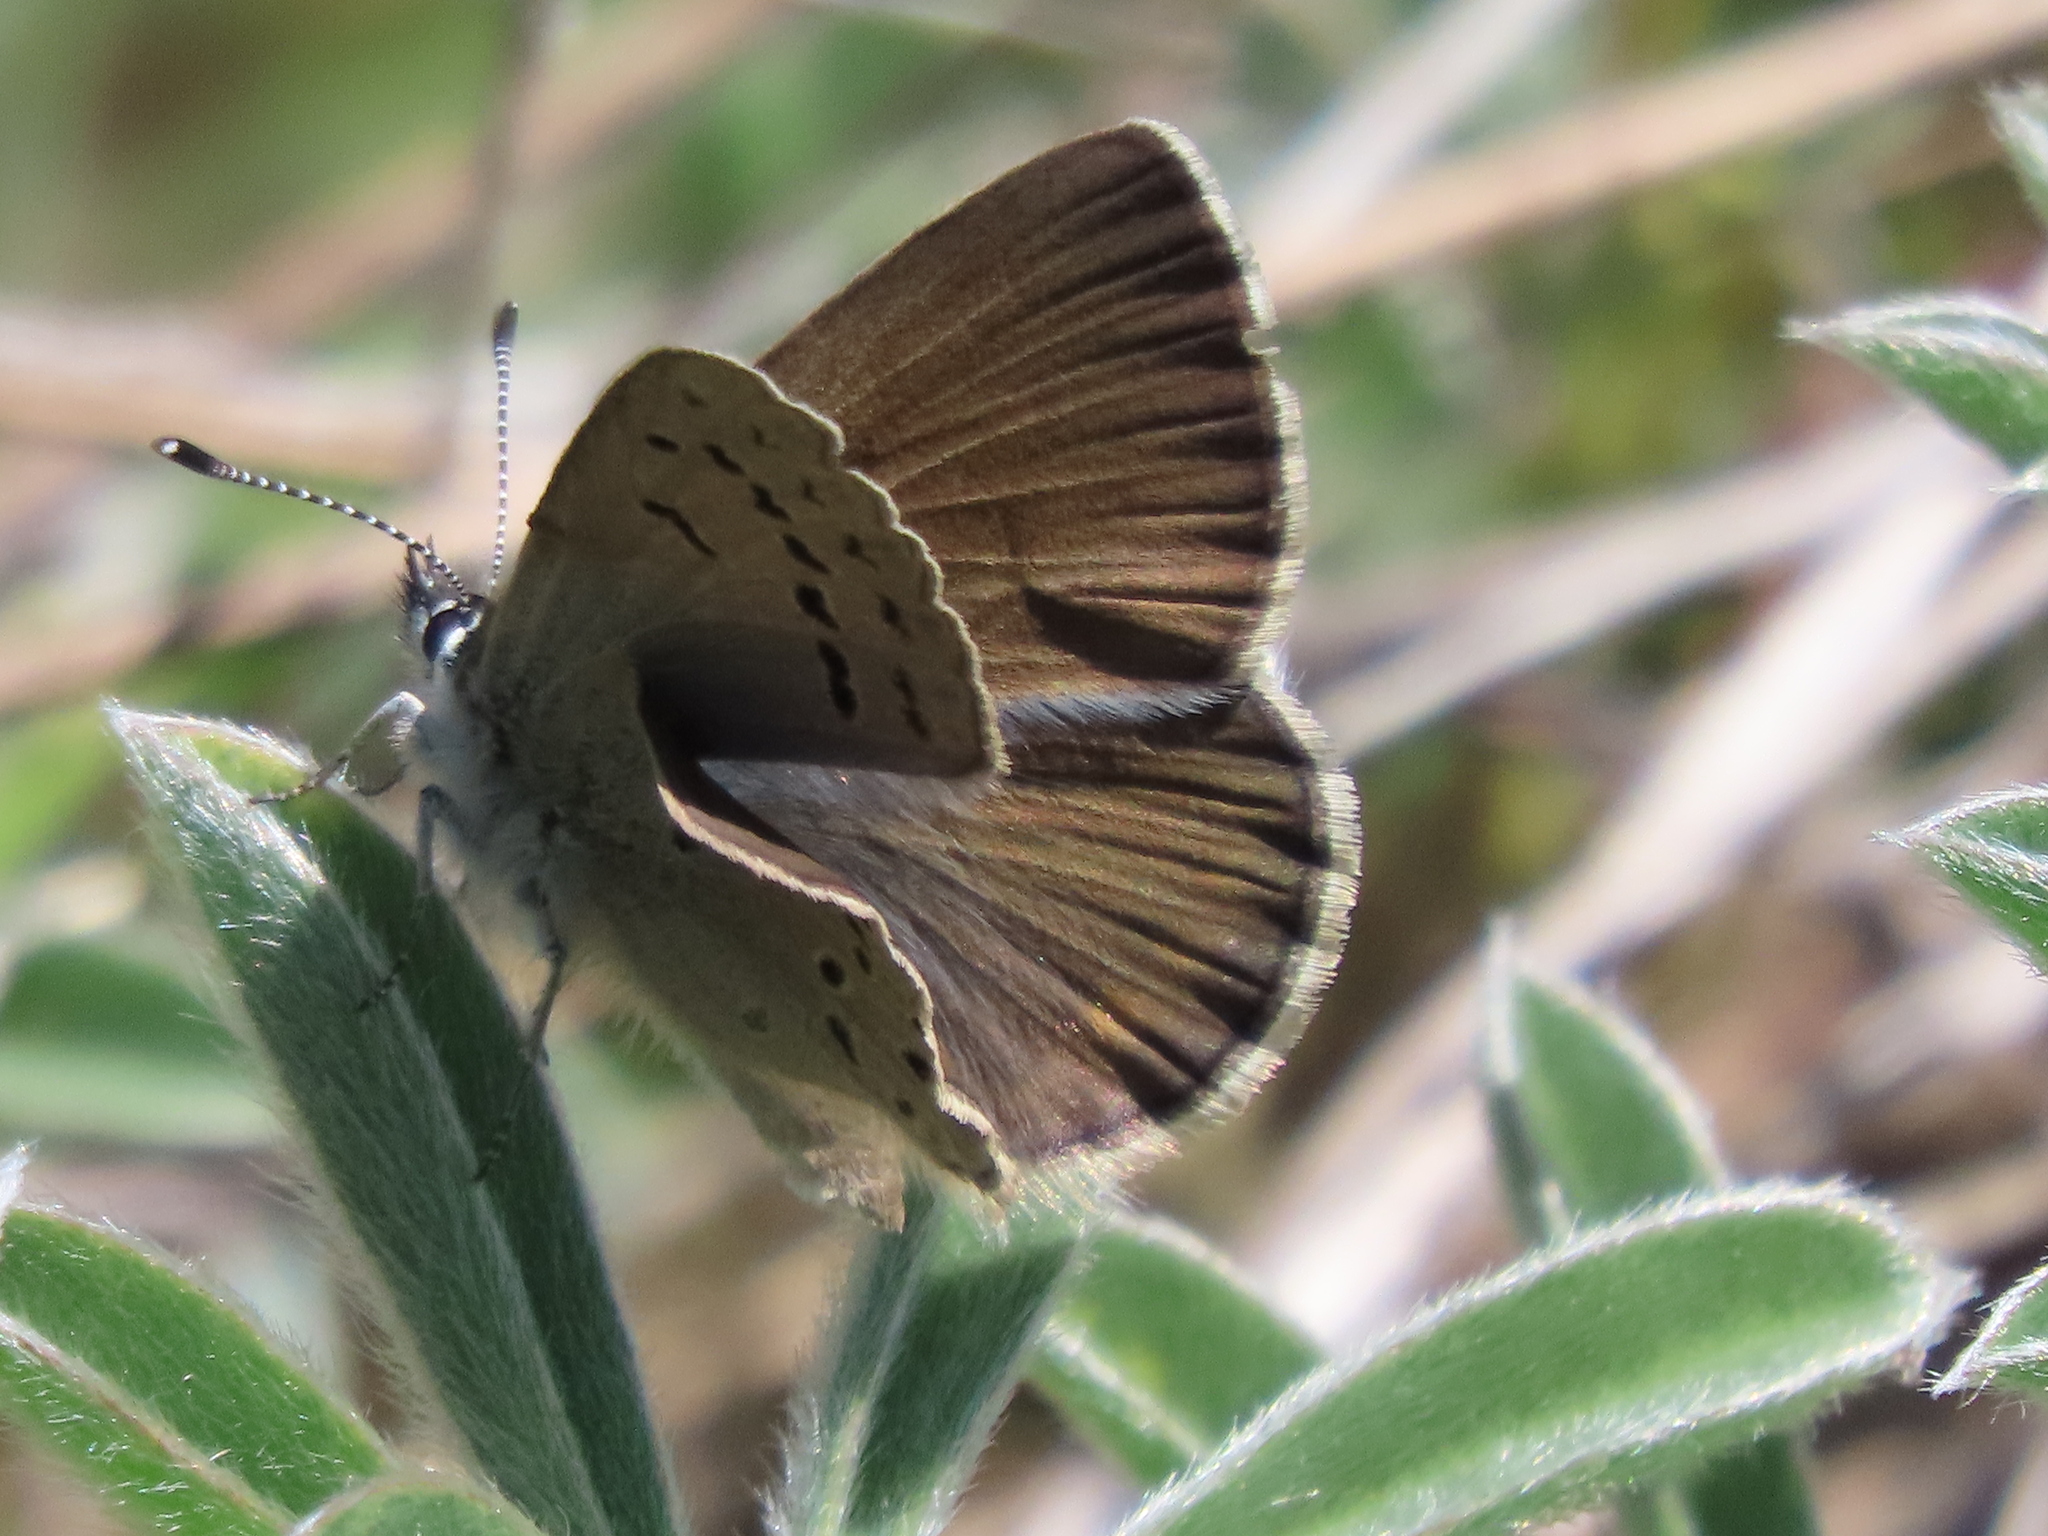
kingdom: Animalia
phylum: Arthropoda
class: Insecta
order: Lepidoptera
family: Lycaenidae
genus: Icaricia
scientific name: Icaricia icarioides
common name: Boisduval's blue
